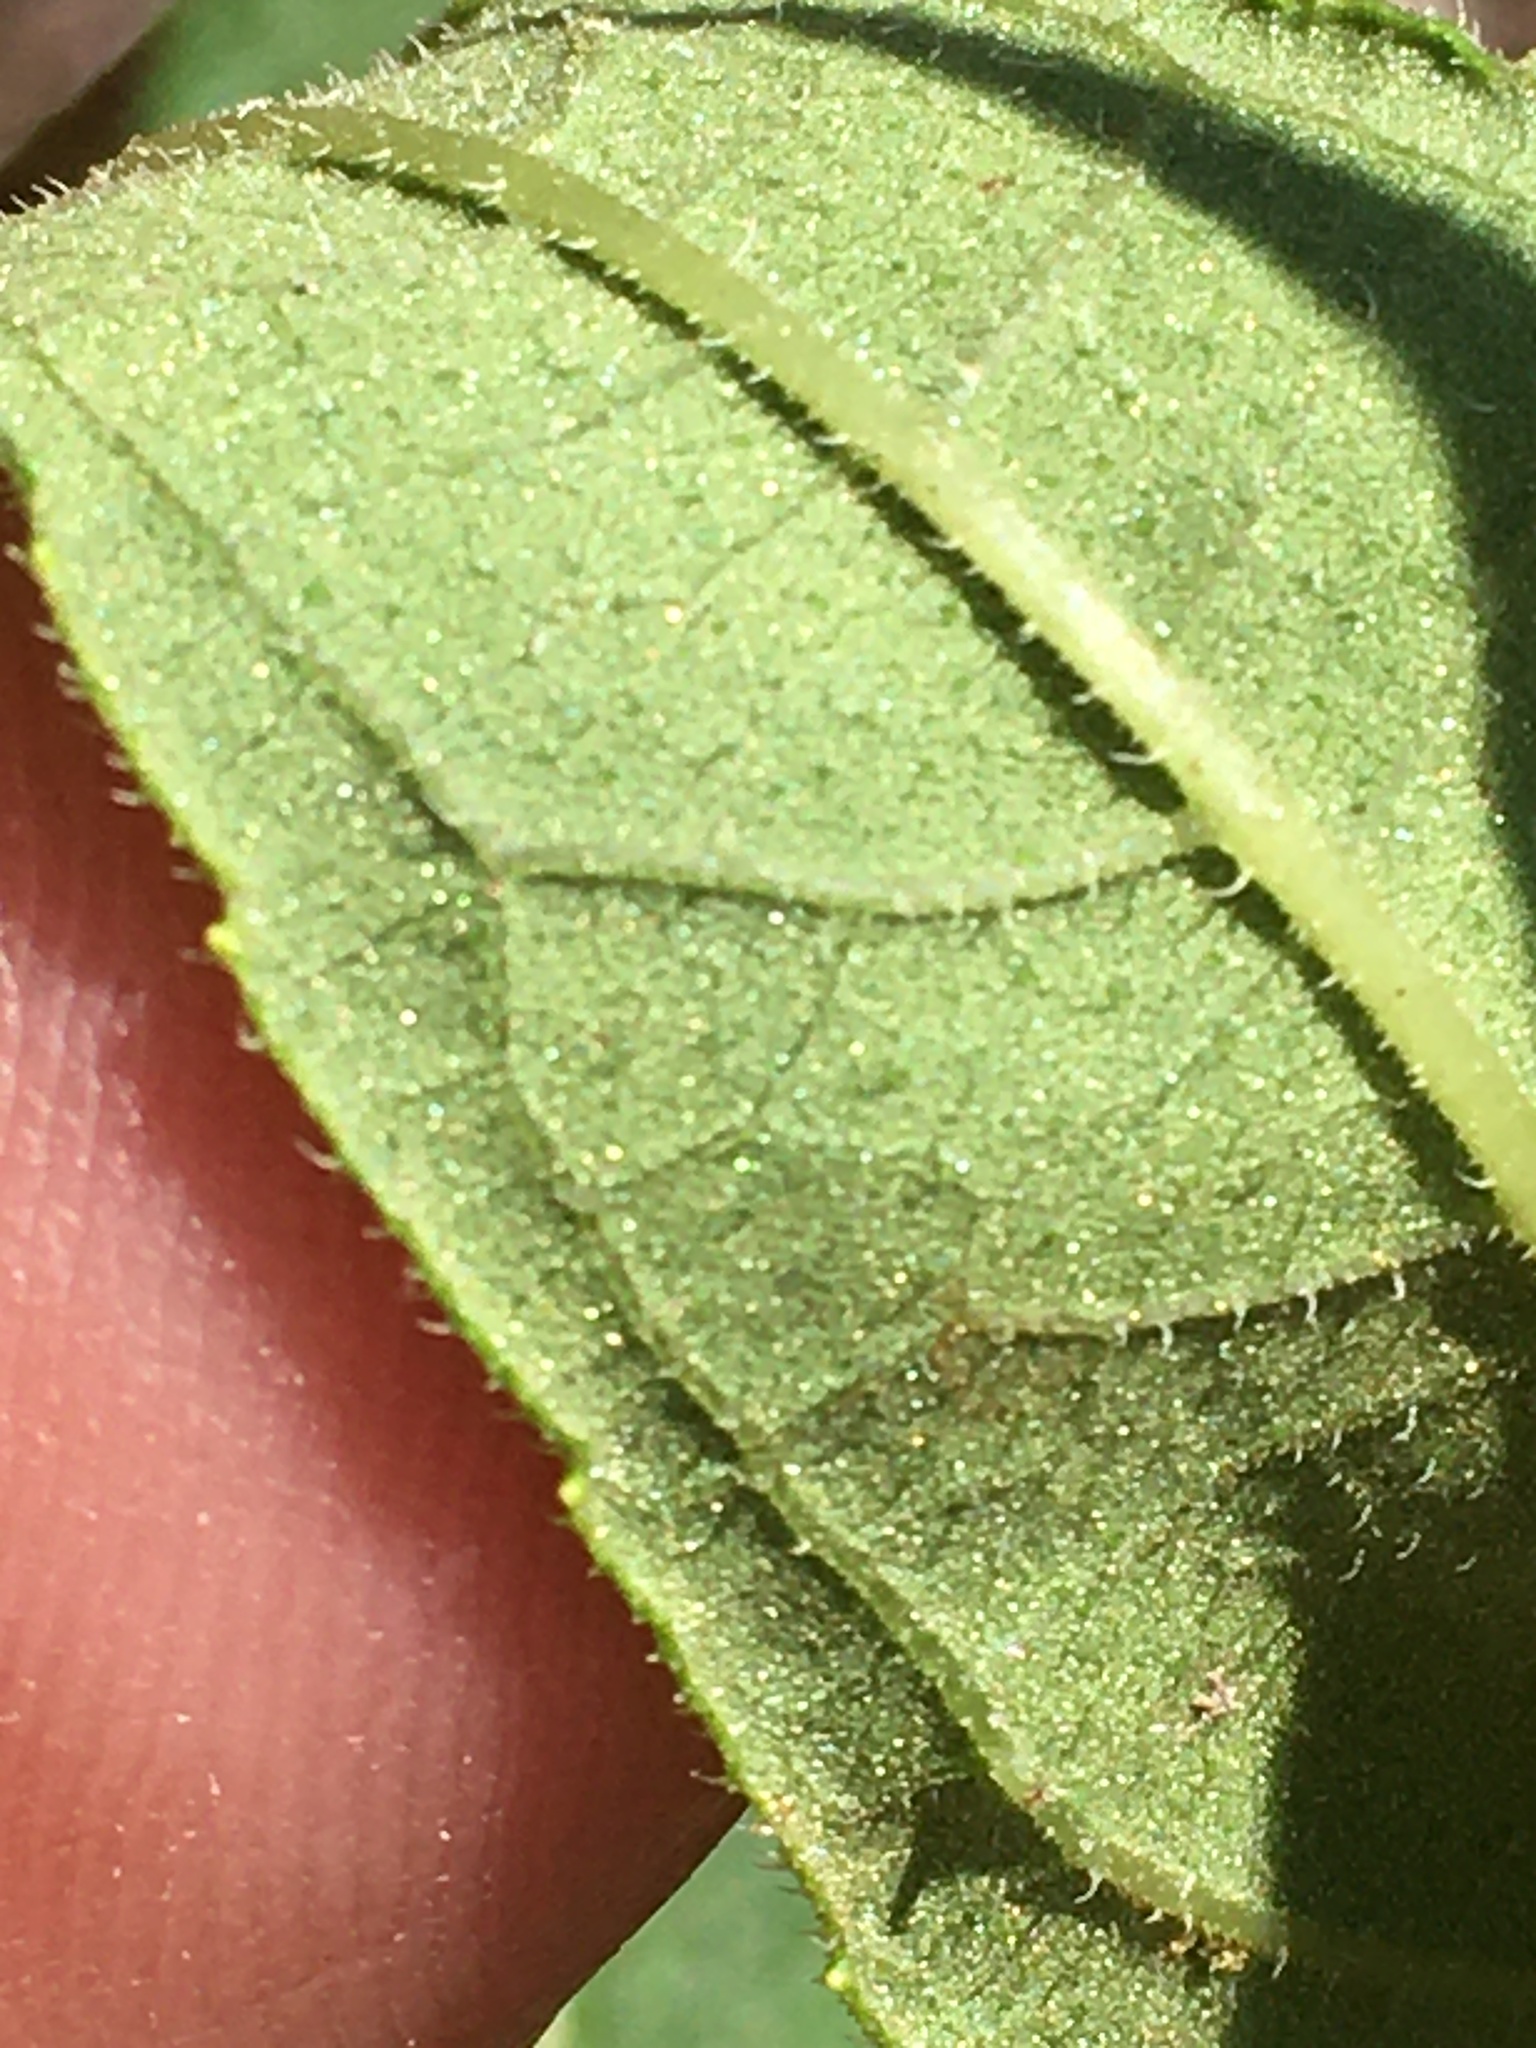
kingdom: Plantae
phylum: Tracheophyta
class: Magnoliopsida
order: Asterales
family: Asteraceae
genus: Helianthus
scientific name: Helianthus divaricatus
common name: Divergent sunflower
